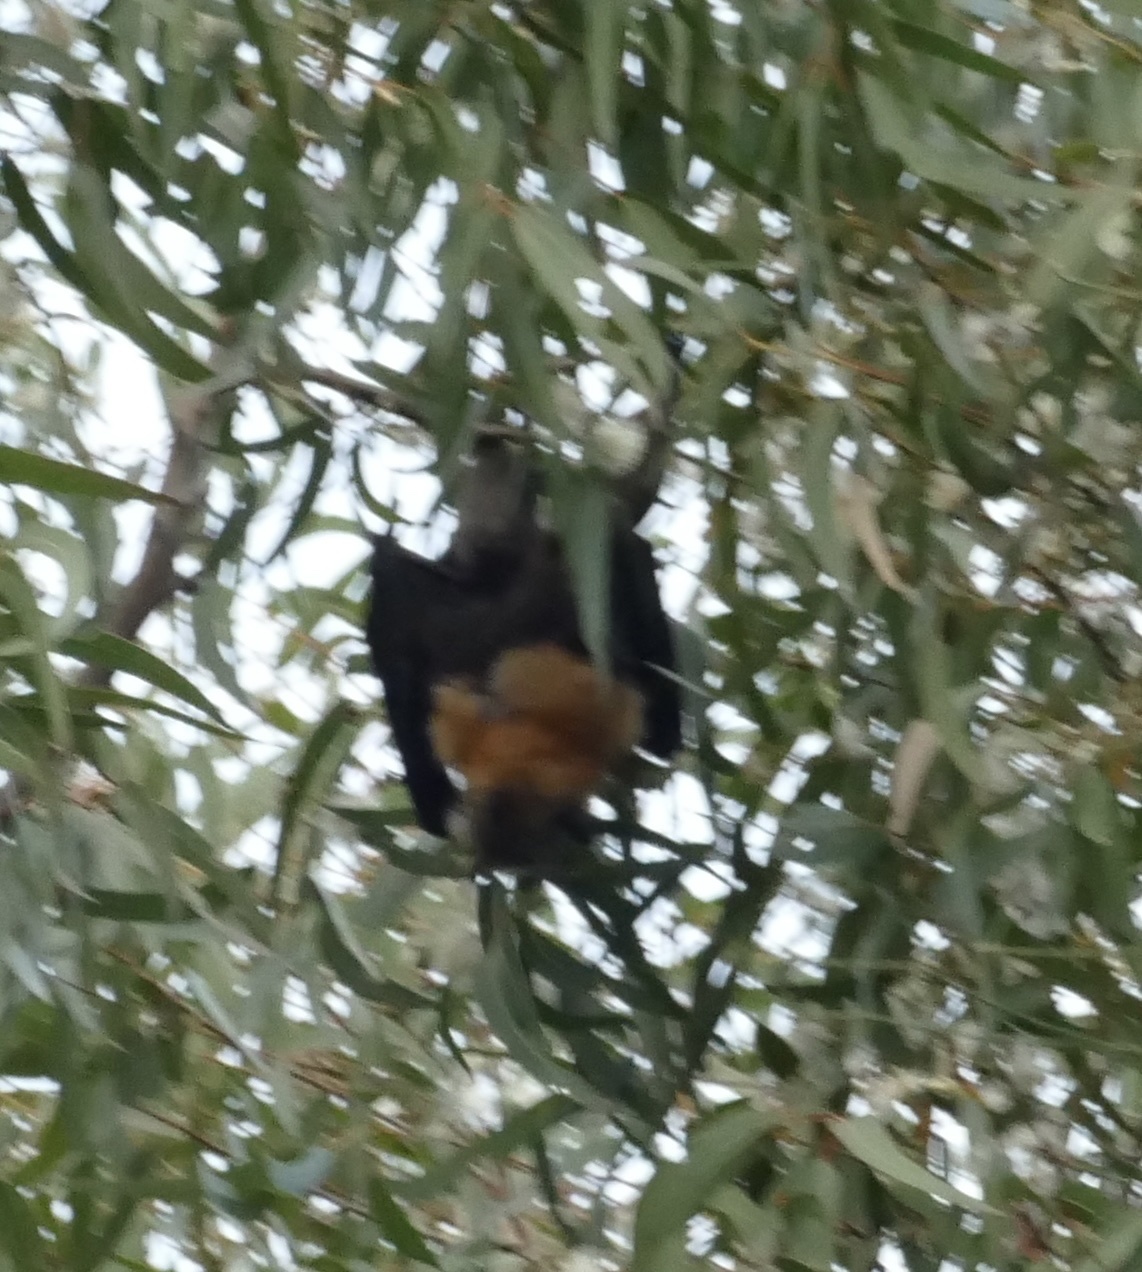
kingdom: Animalia
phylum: Chordata
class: Mammalia
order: Chiroptera
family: Pteropodidae
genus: Pteropus
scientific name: Pteropus poliocephalus
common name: Gray-headed flying fox
